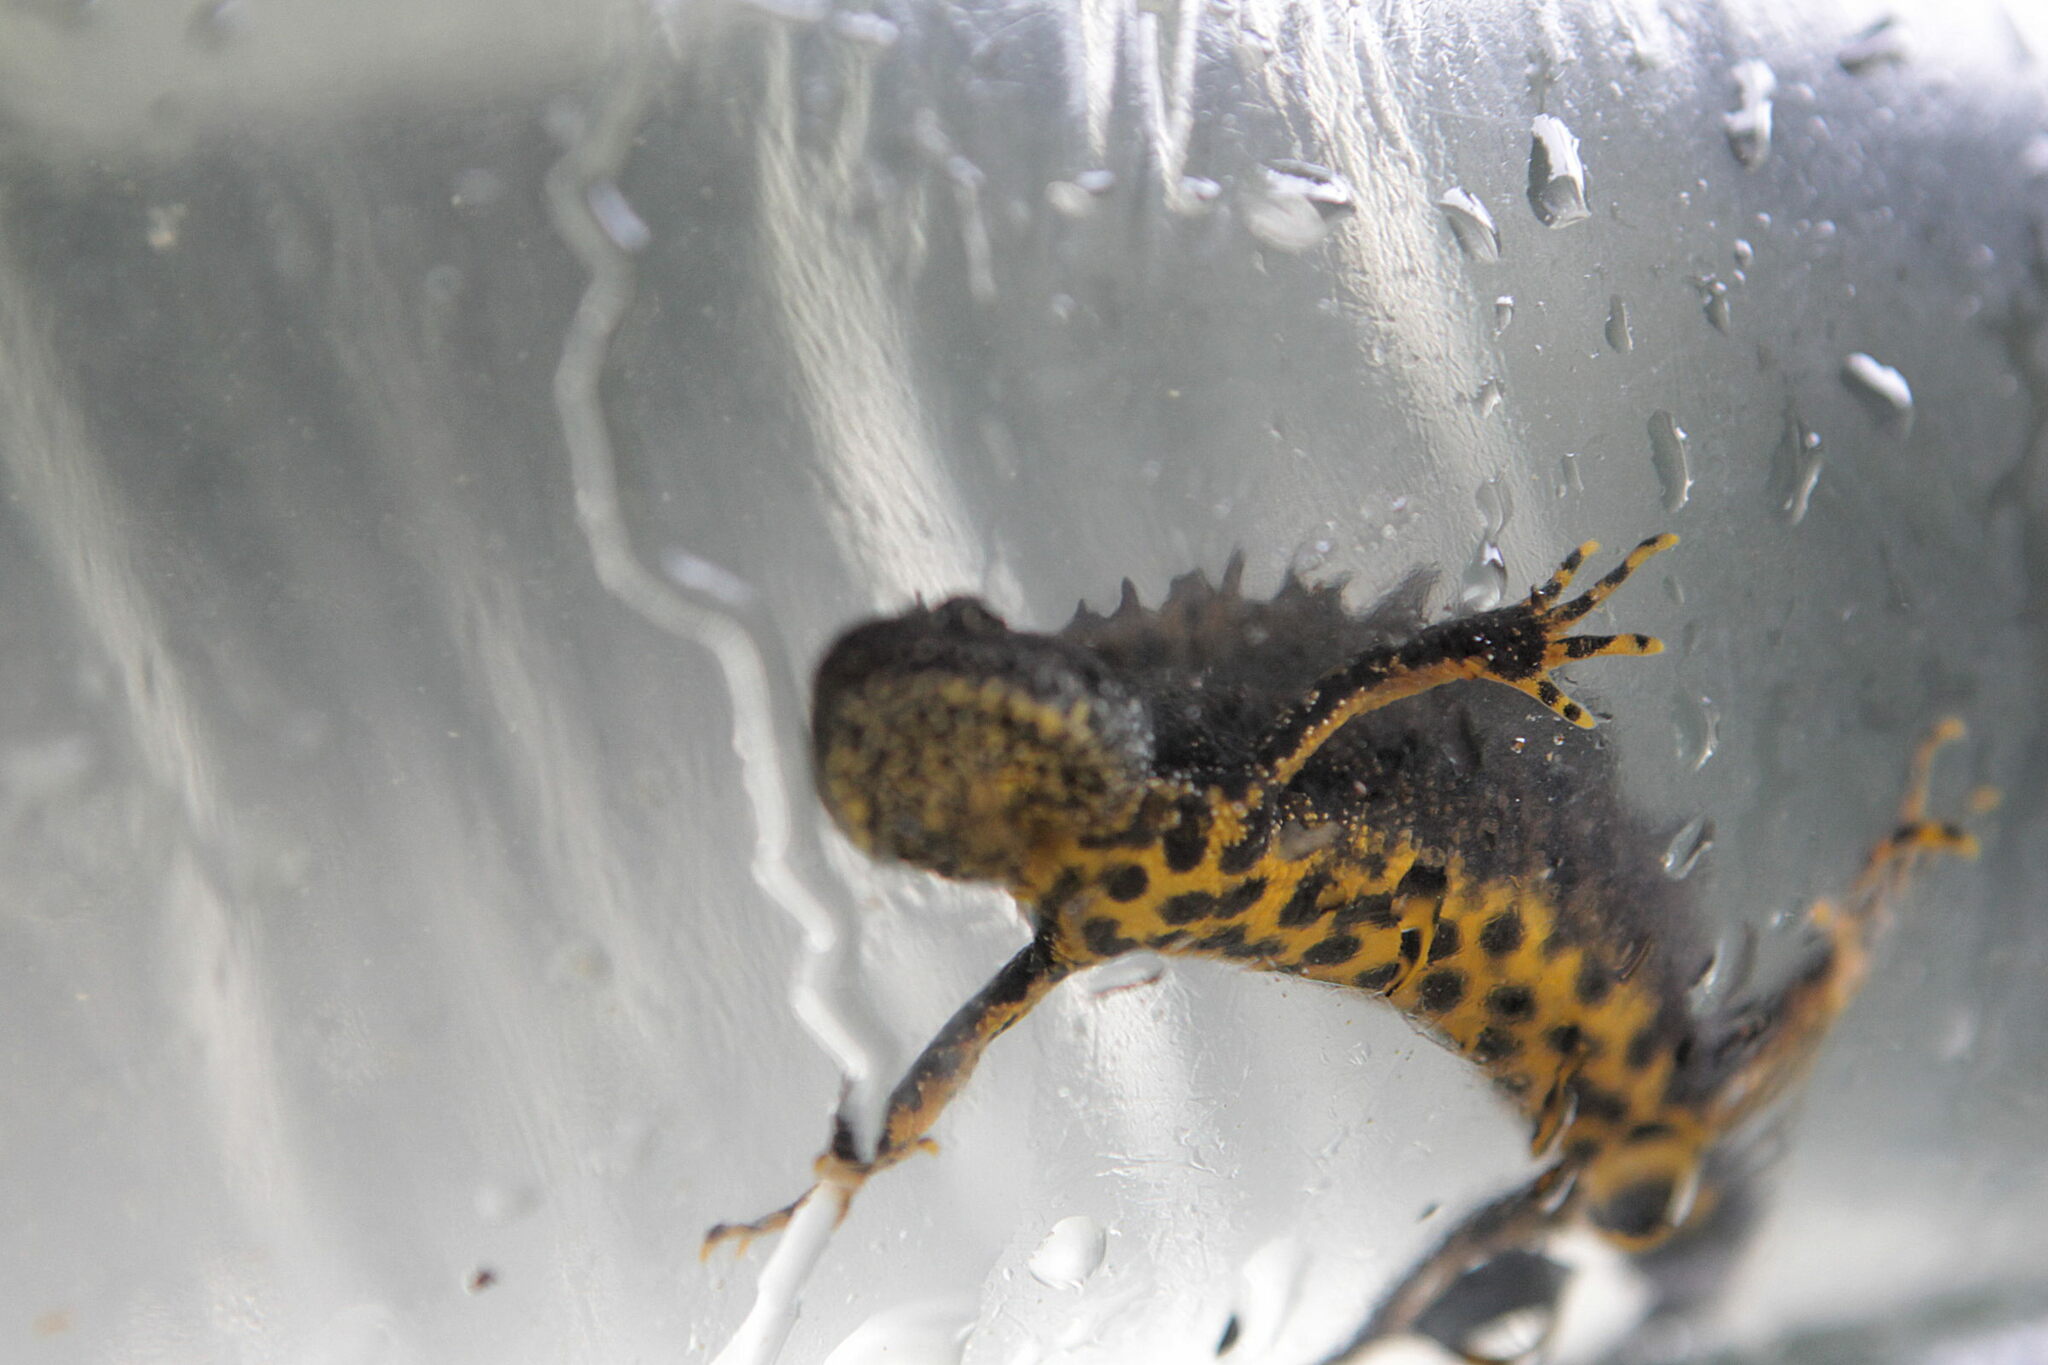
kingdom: Animalia
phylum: Chordata
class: Amphibia
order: Caudata
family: Salamandridae
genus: Triturus
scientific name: Triturus cristatus
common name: Crested newt
